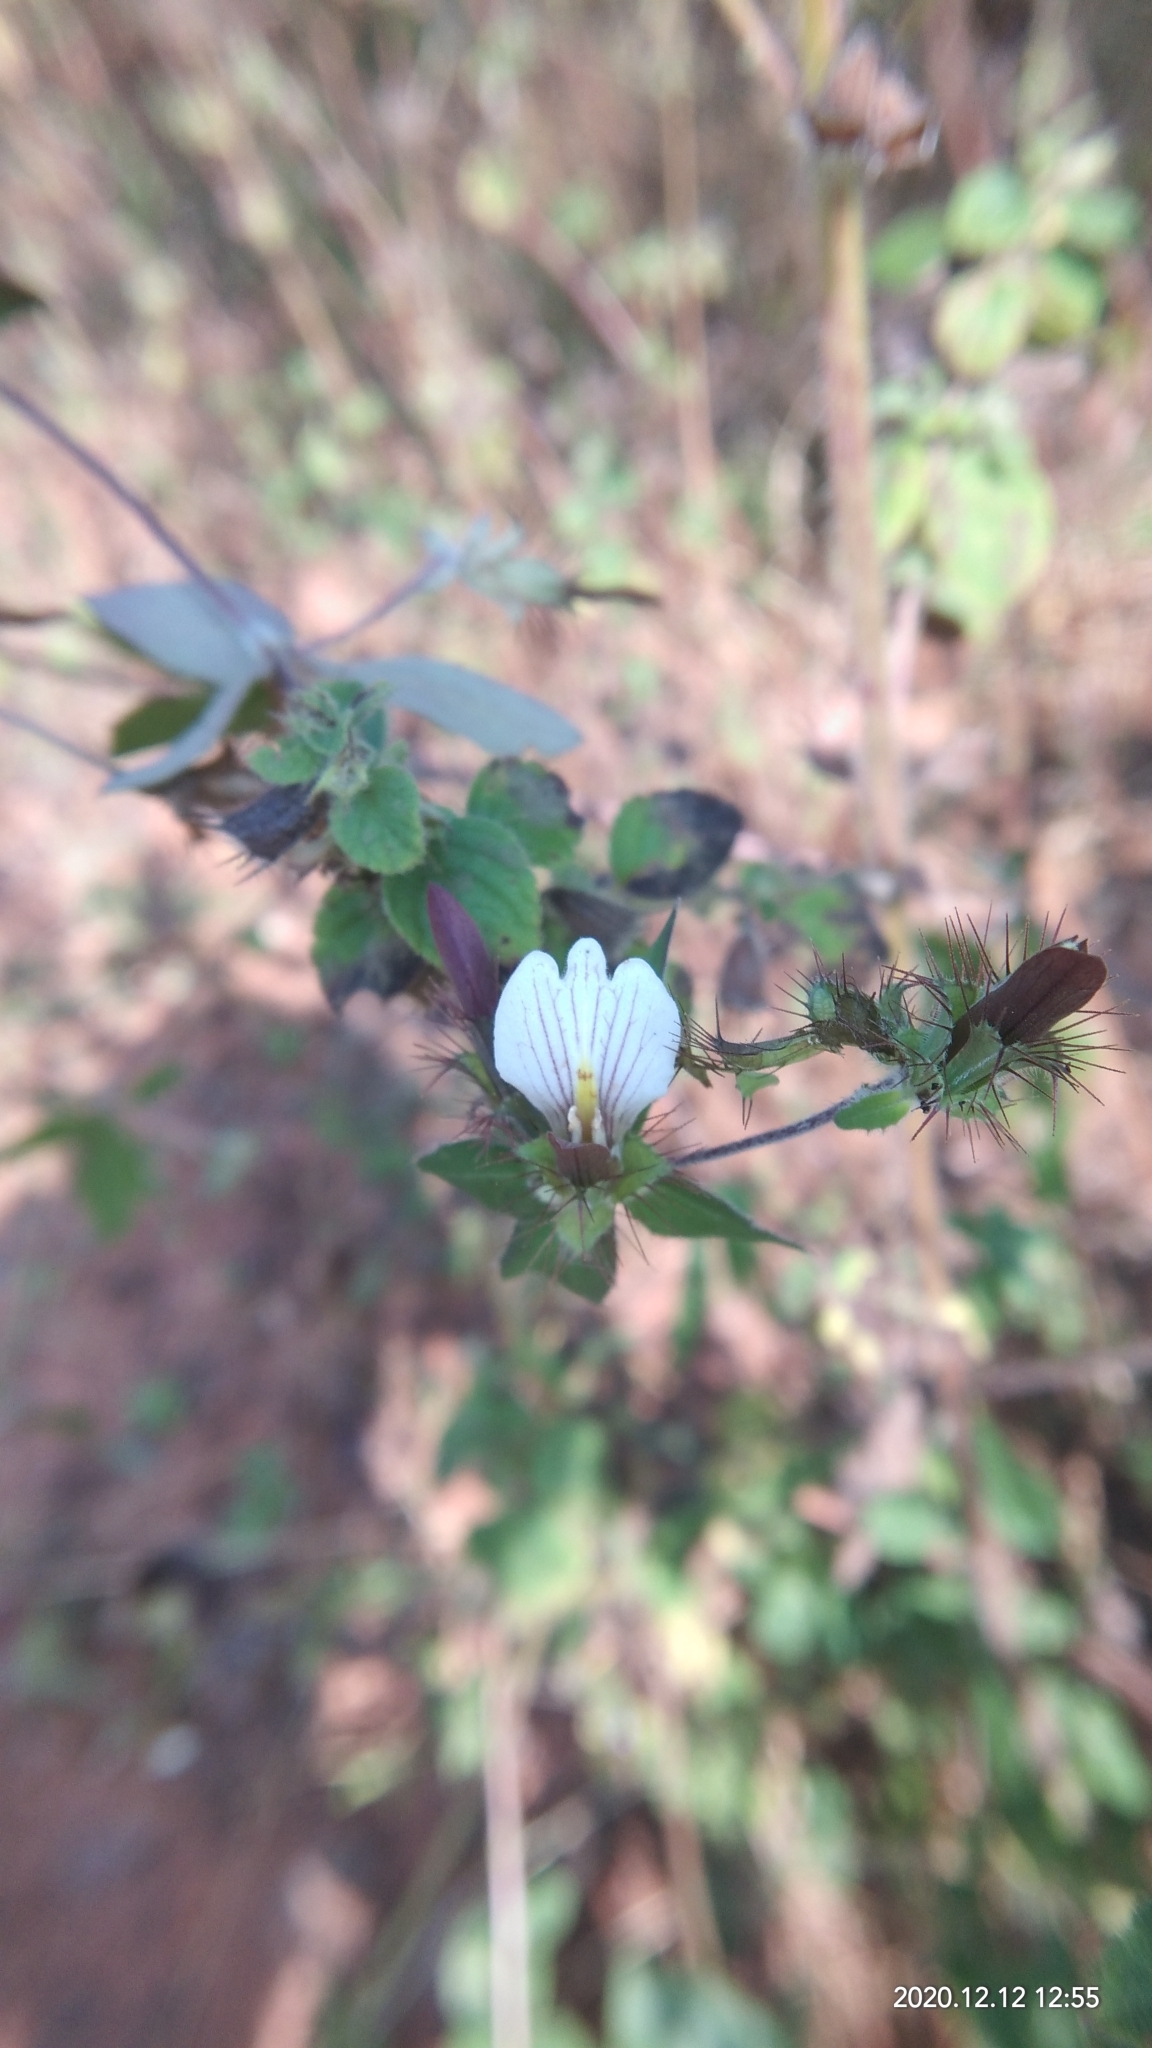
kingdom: Plantae
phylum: Tracheophyta
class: Magnoliopsida
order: Lamiales
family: Acanthaceae
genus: Blepharis
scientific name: Blepharis maderaspatensis
